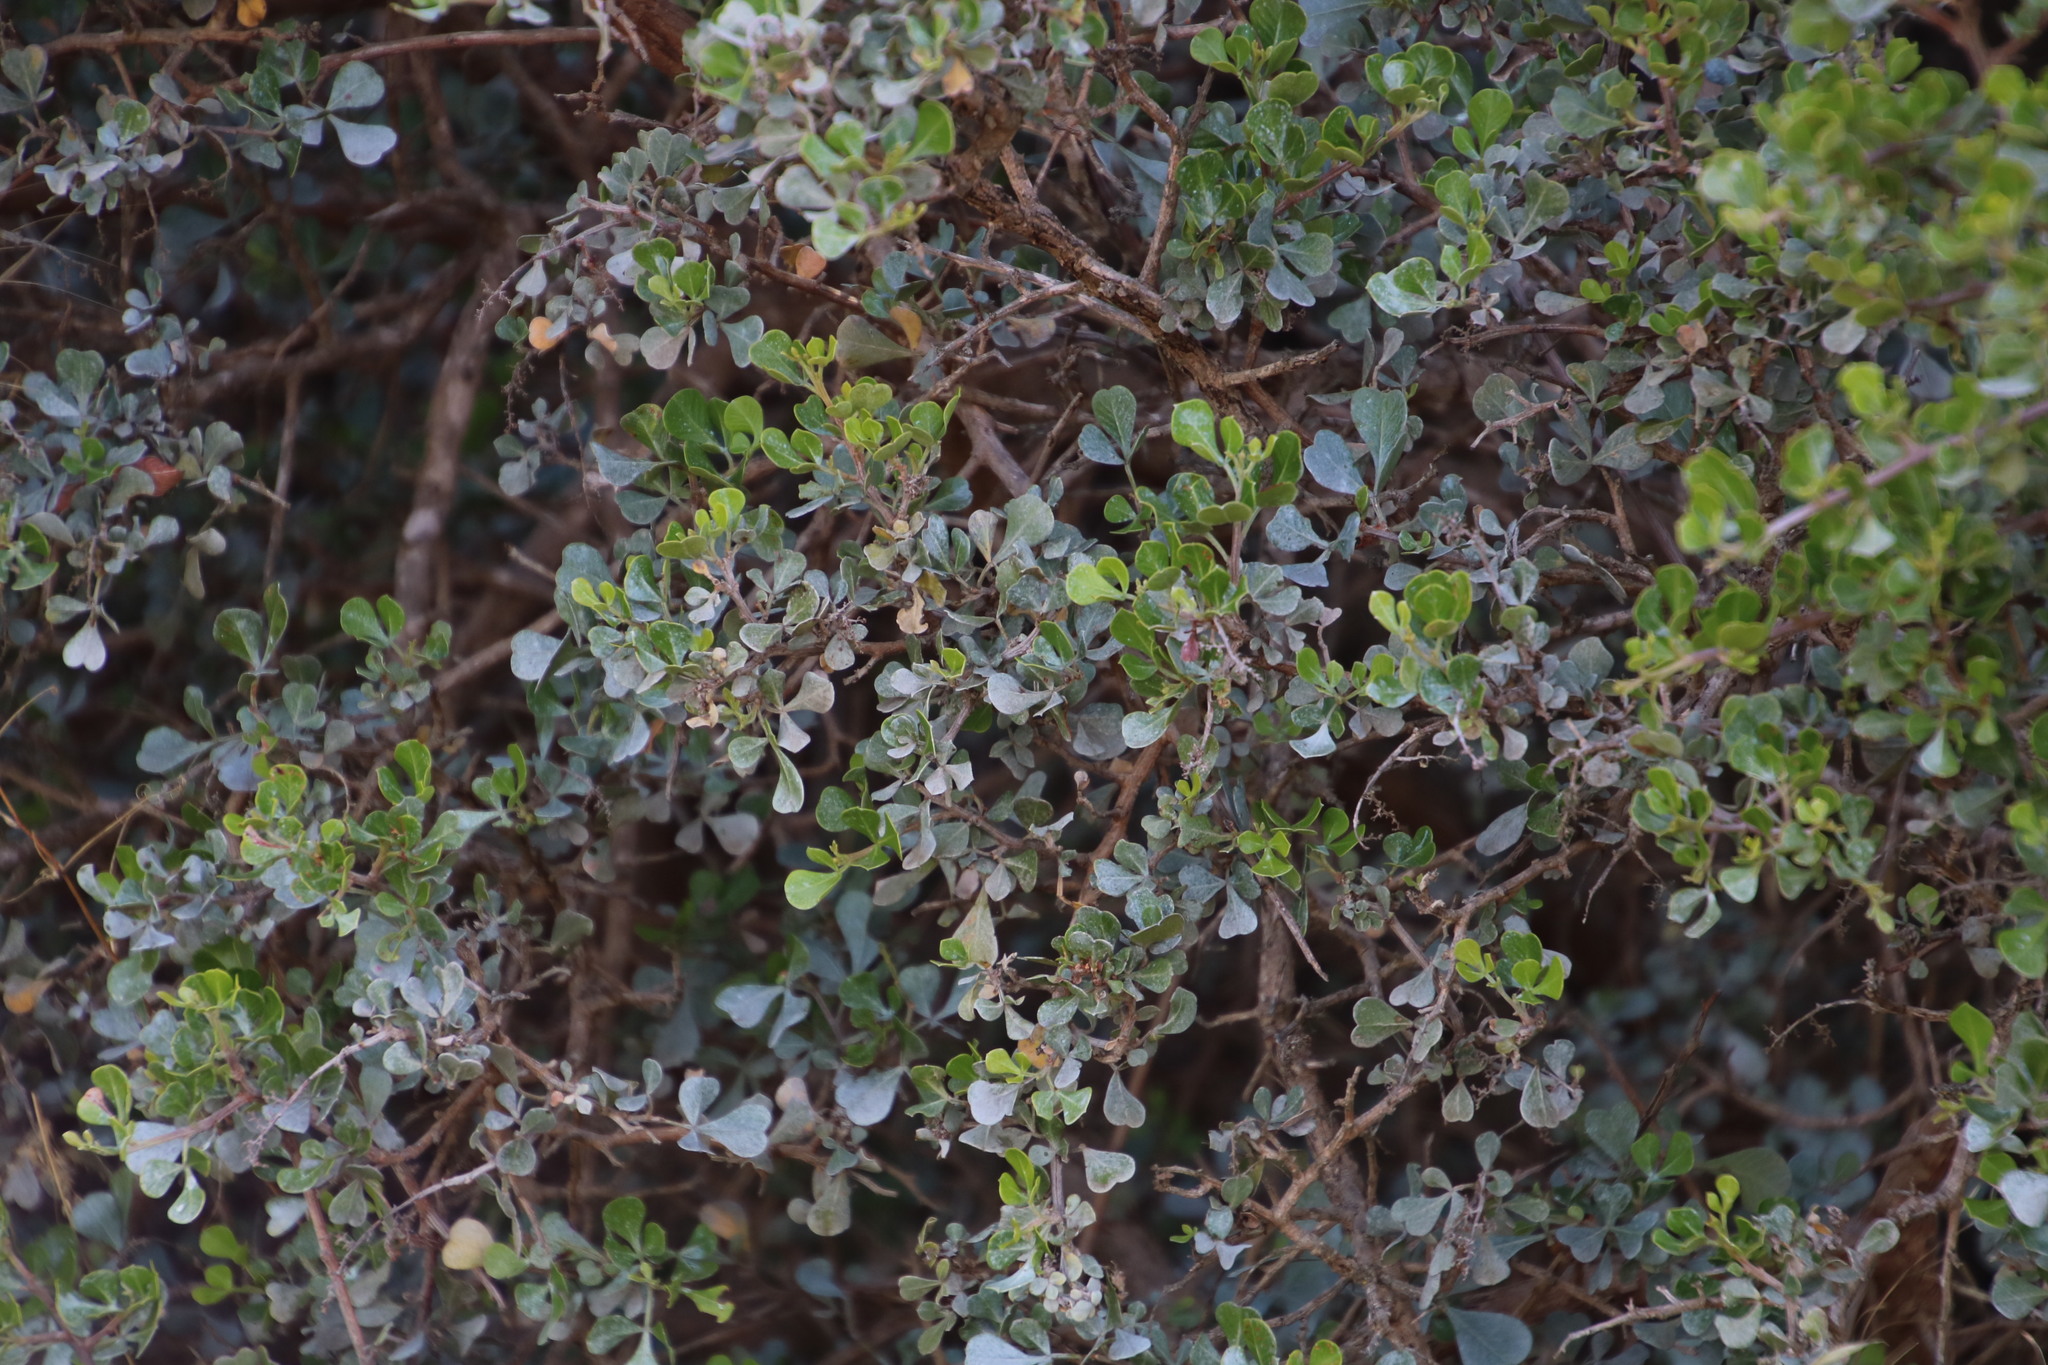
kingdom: Plantae
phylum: Tracheophyta
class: Magnoliopsida
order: Sapindales
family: Anacardiaceae
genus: Searsia
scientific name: Searsia glauca
